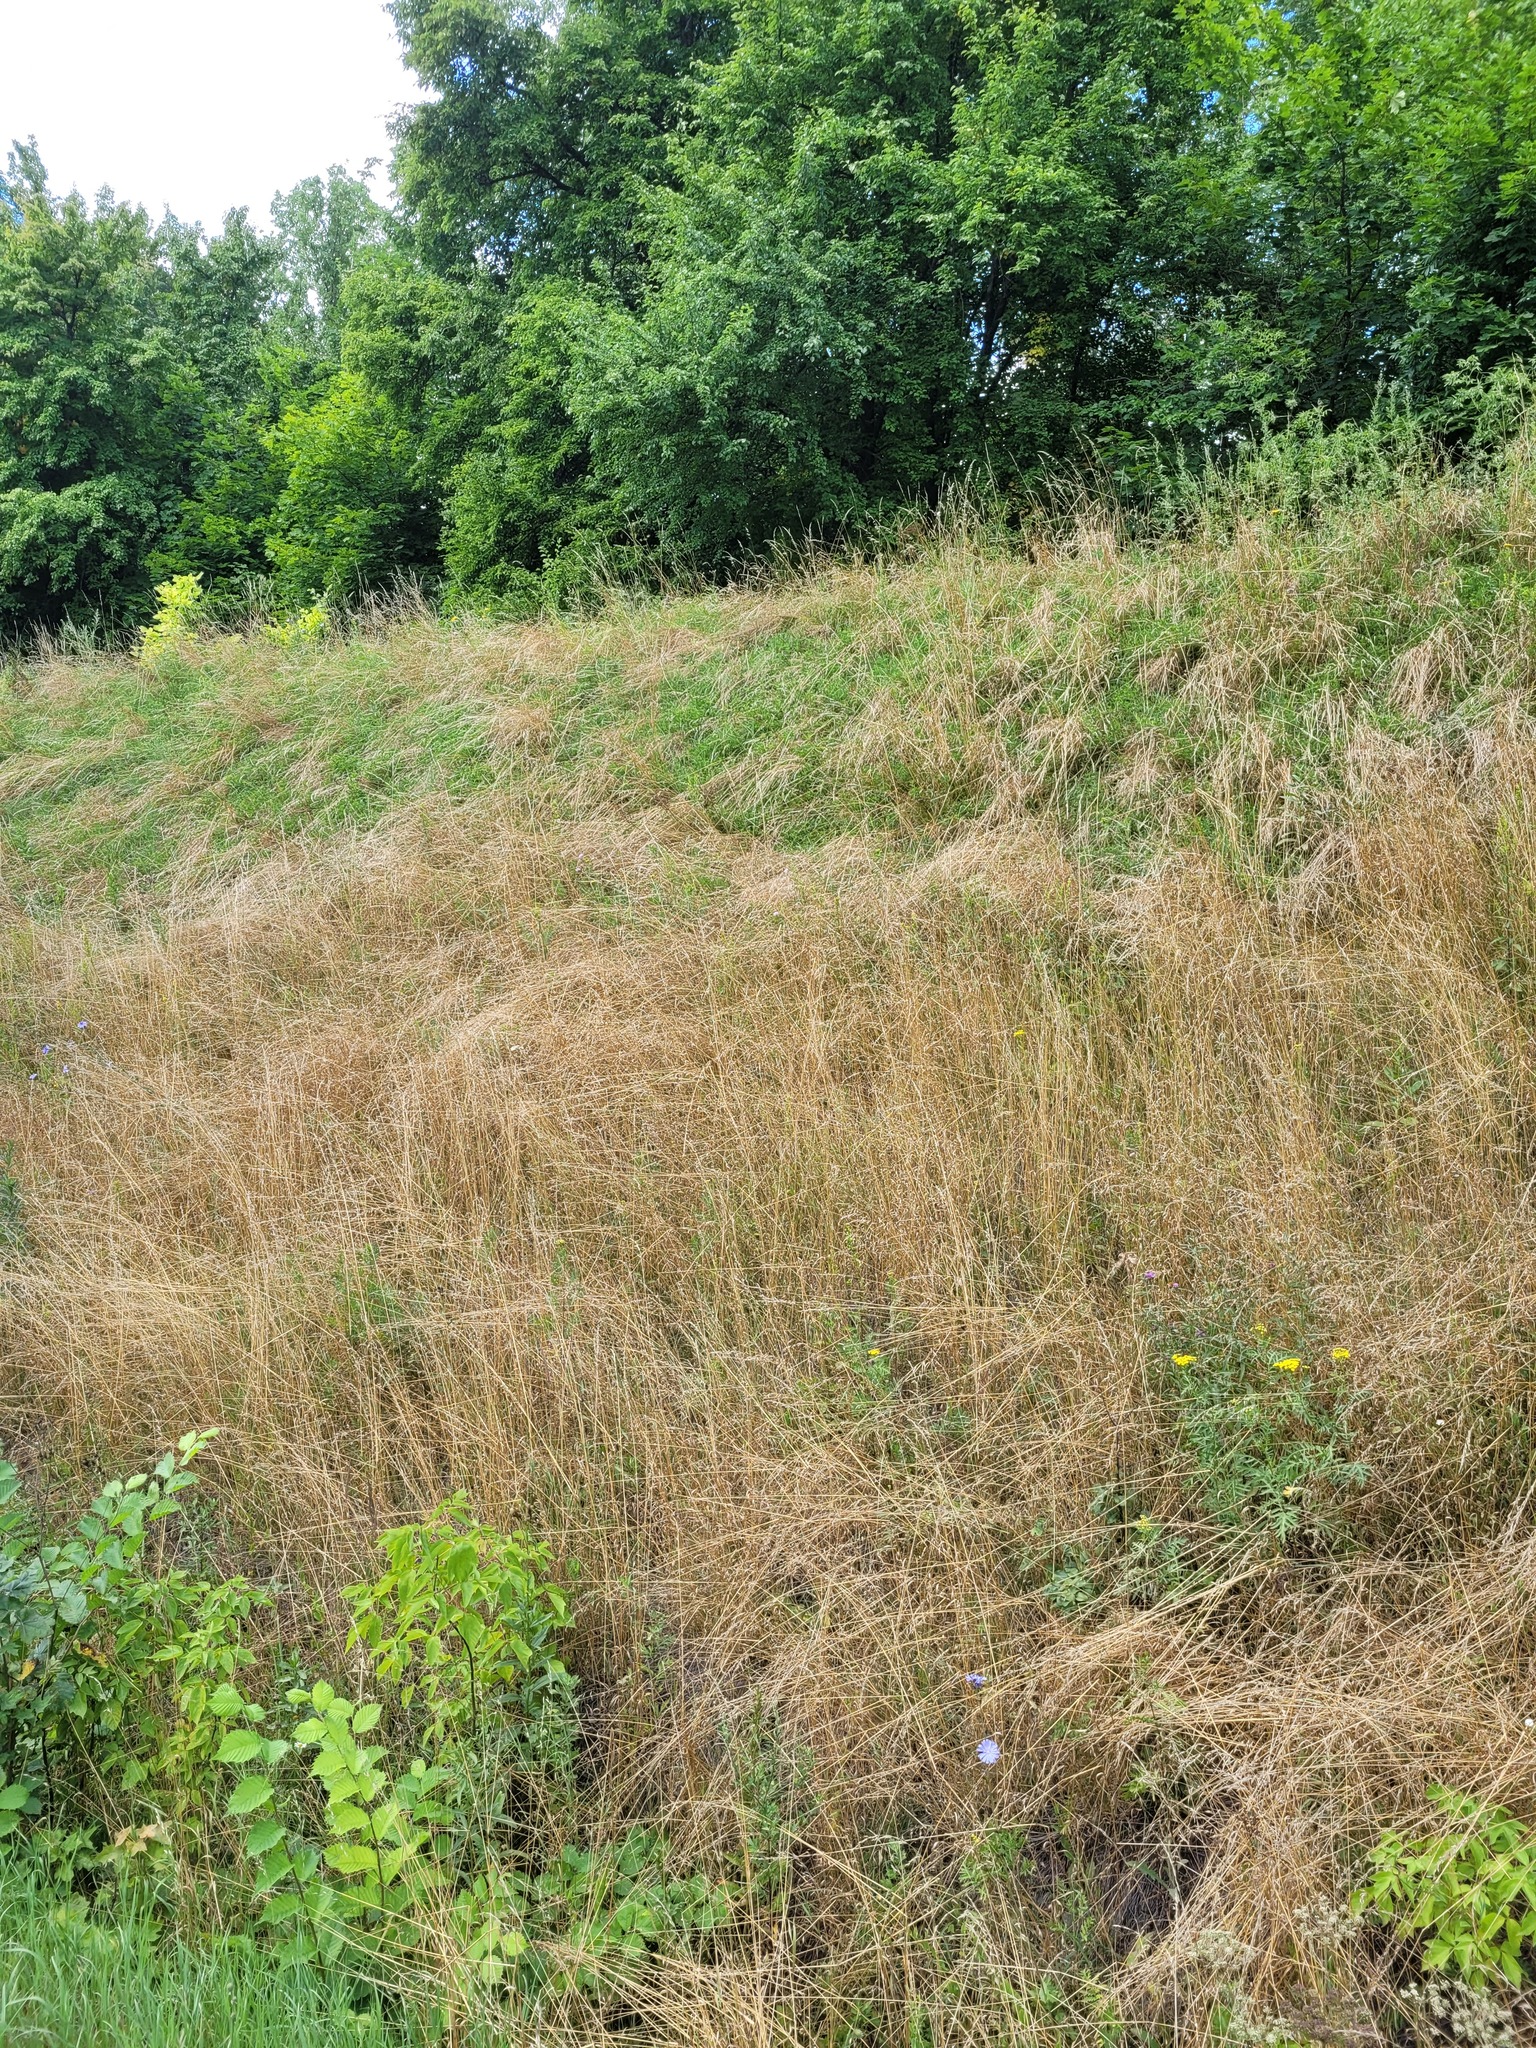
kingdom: Plantae
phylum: Tracheophyta
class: Liliopsida
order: Poales
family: Poaceae
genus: Arrhenatherum
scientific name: Arrhenatherum elatius
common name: Tall oatgrass
